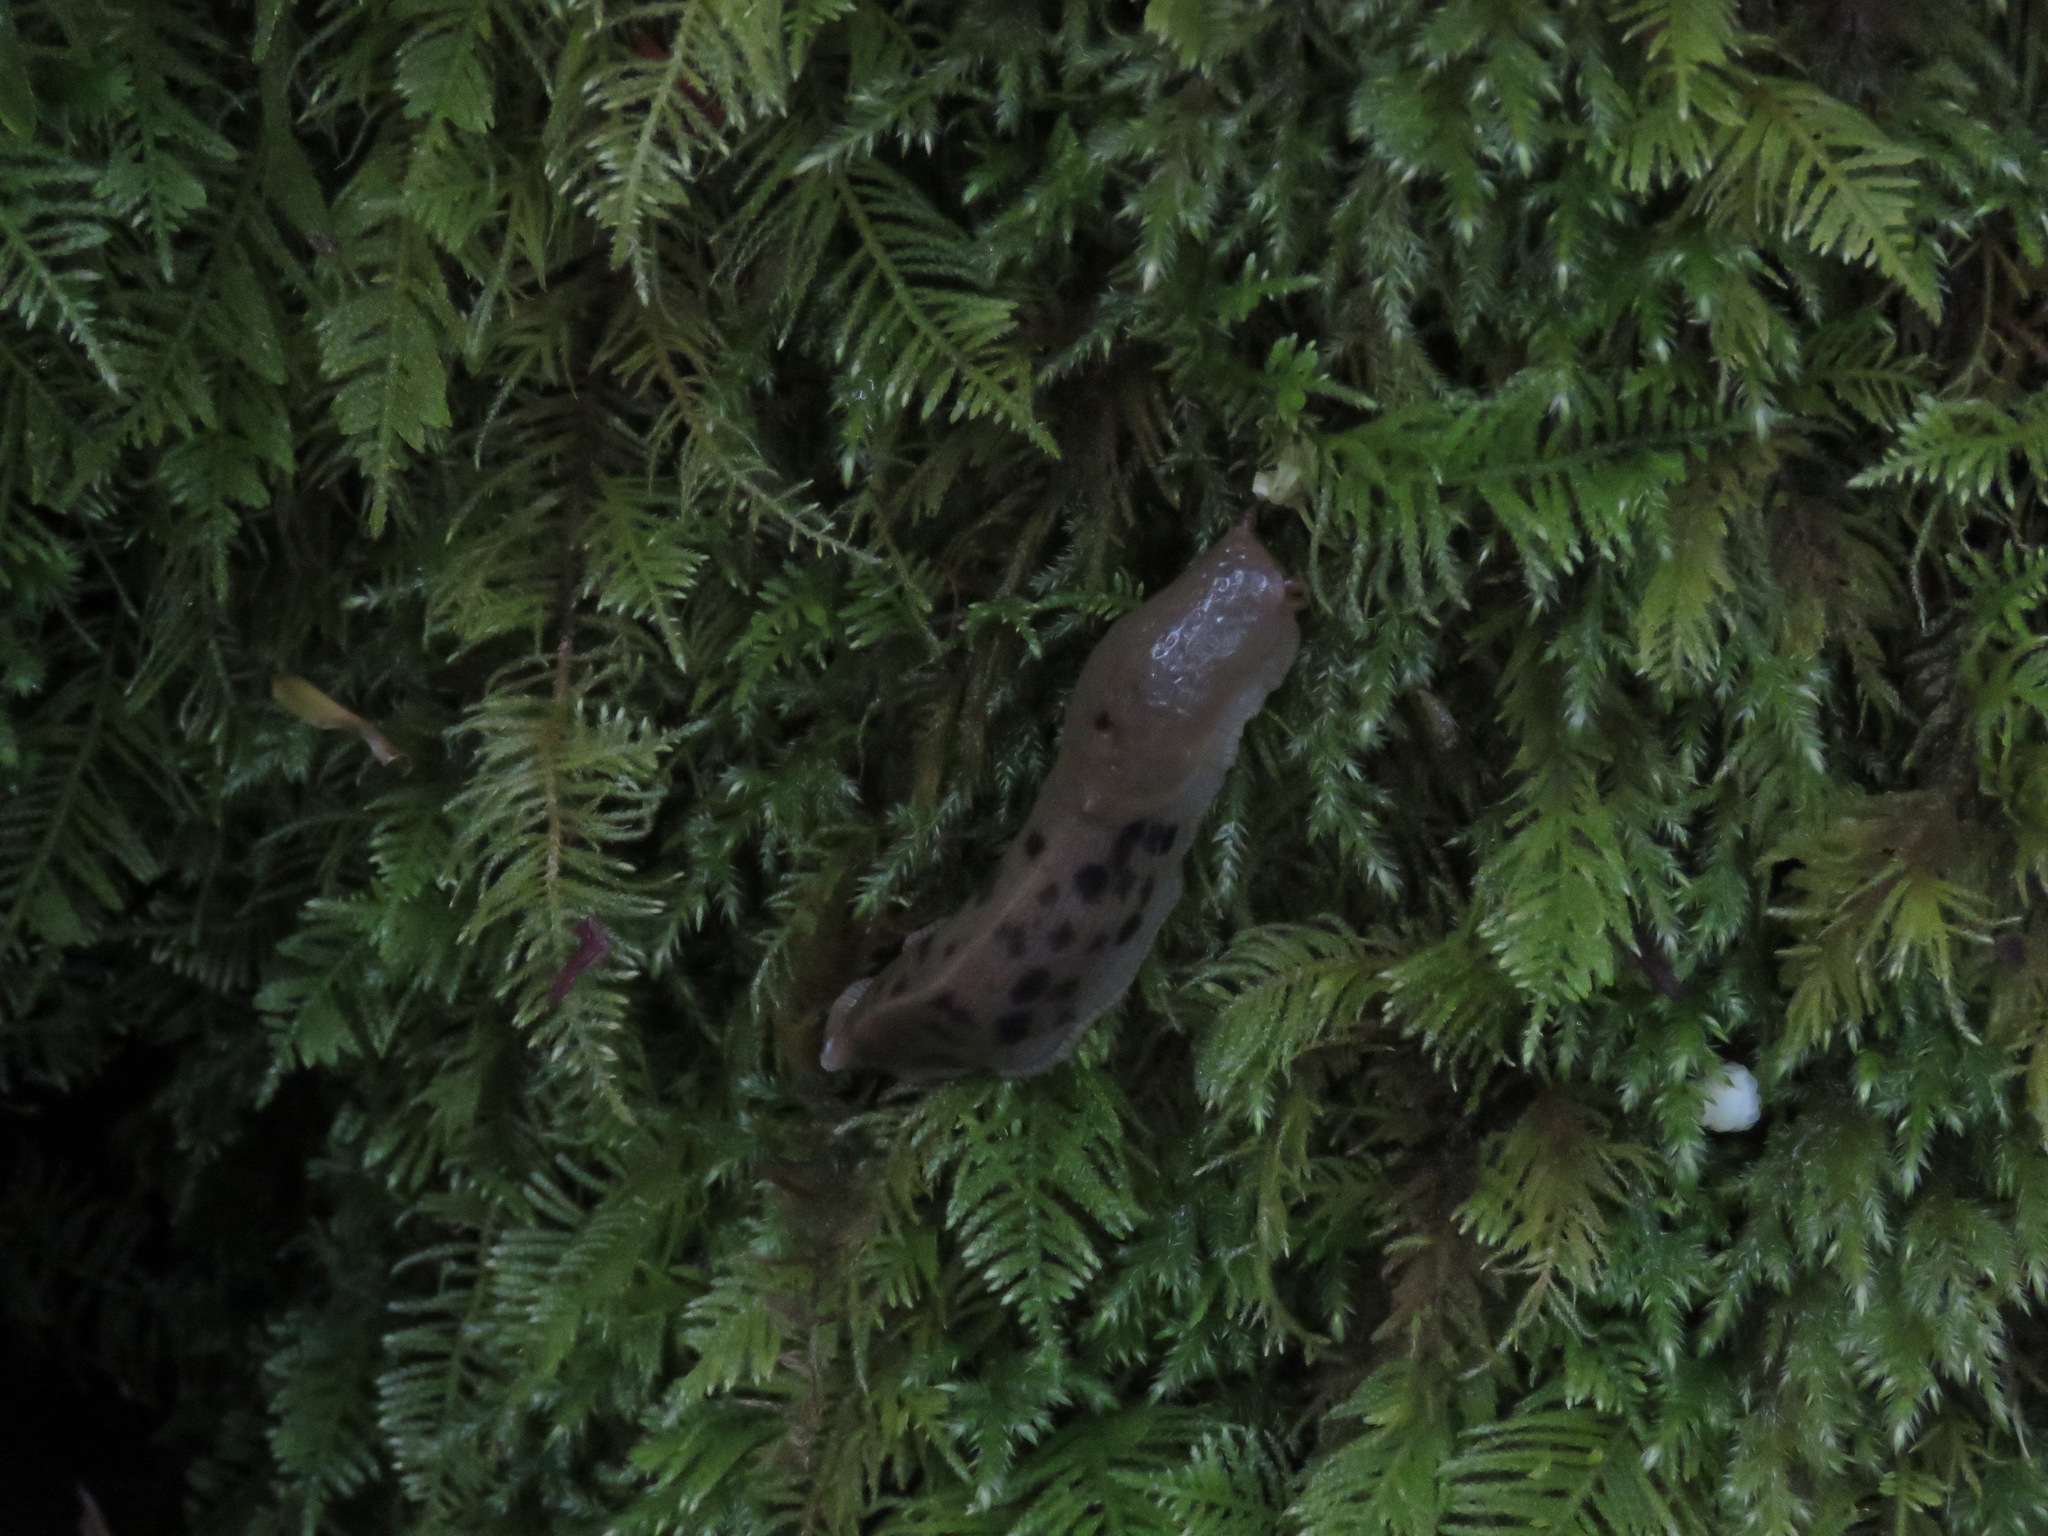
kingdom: Animalia
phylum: Mollusca
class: Gastropoda
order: Stylommatophora
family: Ariolimacidae
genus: Ariolimax
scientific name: Ariolimax columbianus
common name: Pacific banana slug
